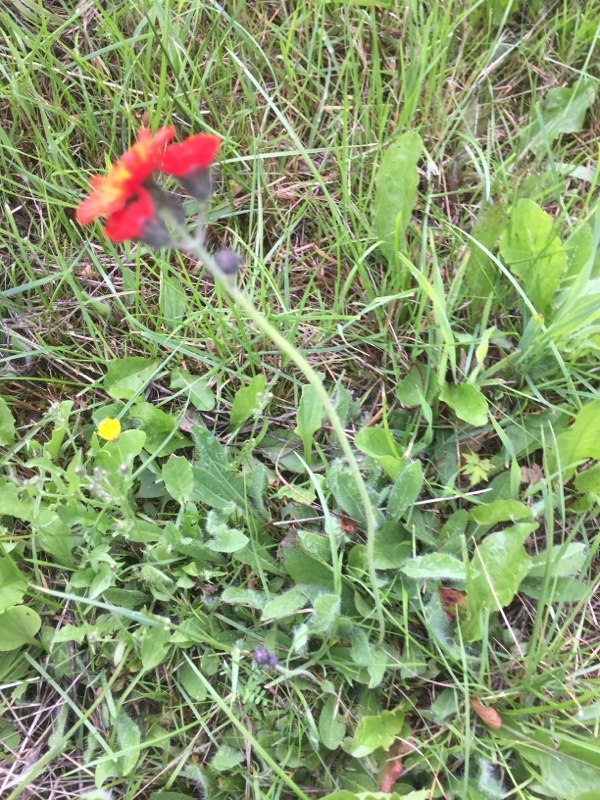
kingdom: Plantae
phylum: Tracheophyta
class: Magnoliopsida
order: Asterales
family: Asteraceae
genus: Pilosella
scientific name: Pilosella aurantiaca
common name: Fox-and-cubs
